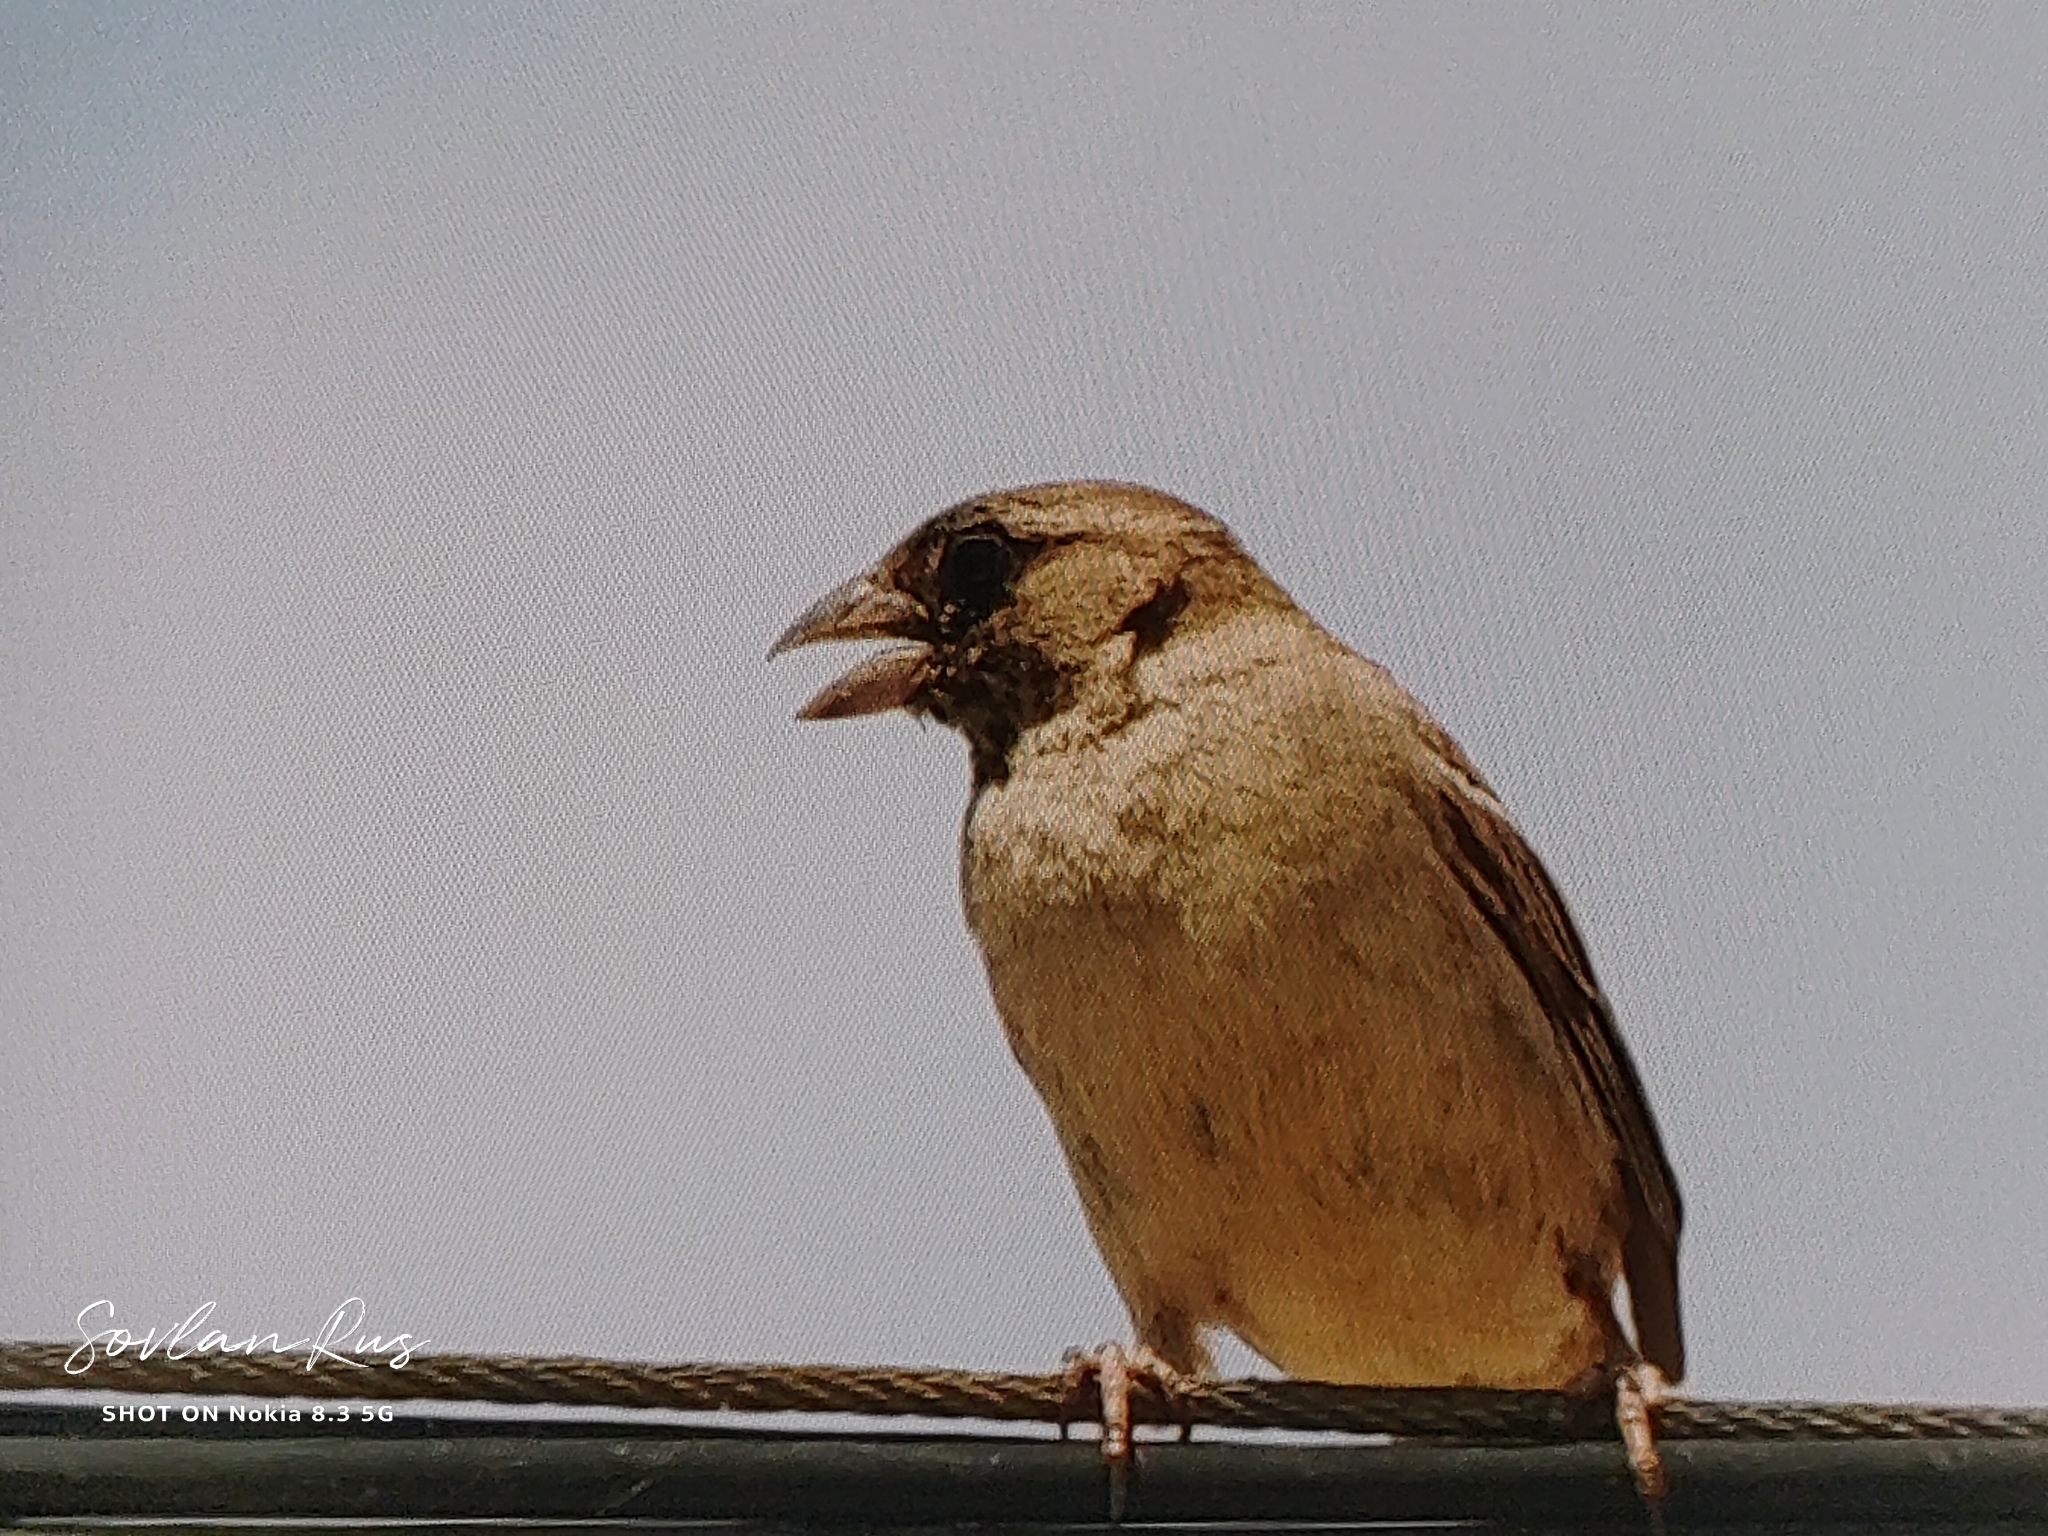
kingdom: Animalia
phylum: Chordata
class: Aves
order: Passeriformes
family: Passeridae
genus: Passer
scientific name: Passer domesticus
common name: House sparrow
